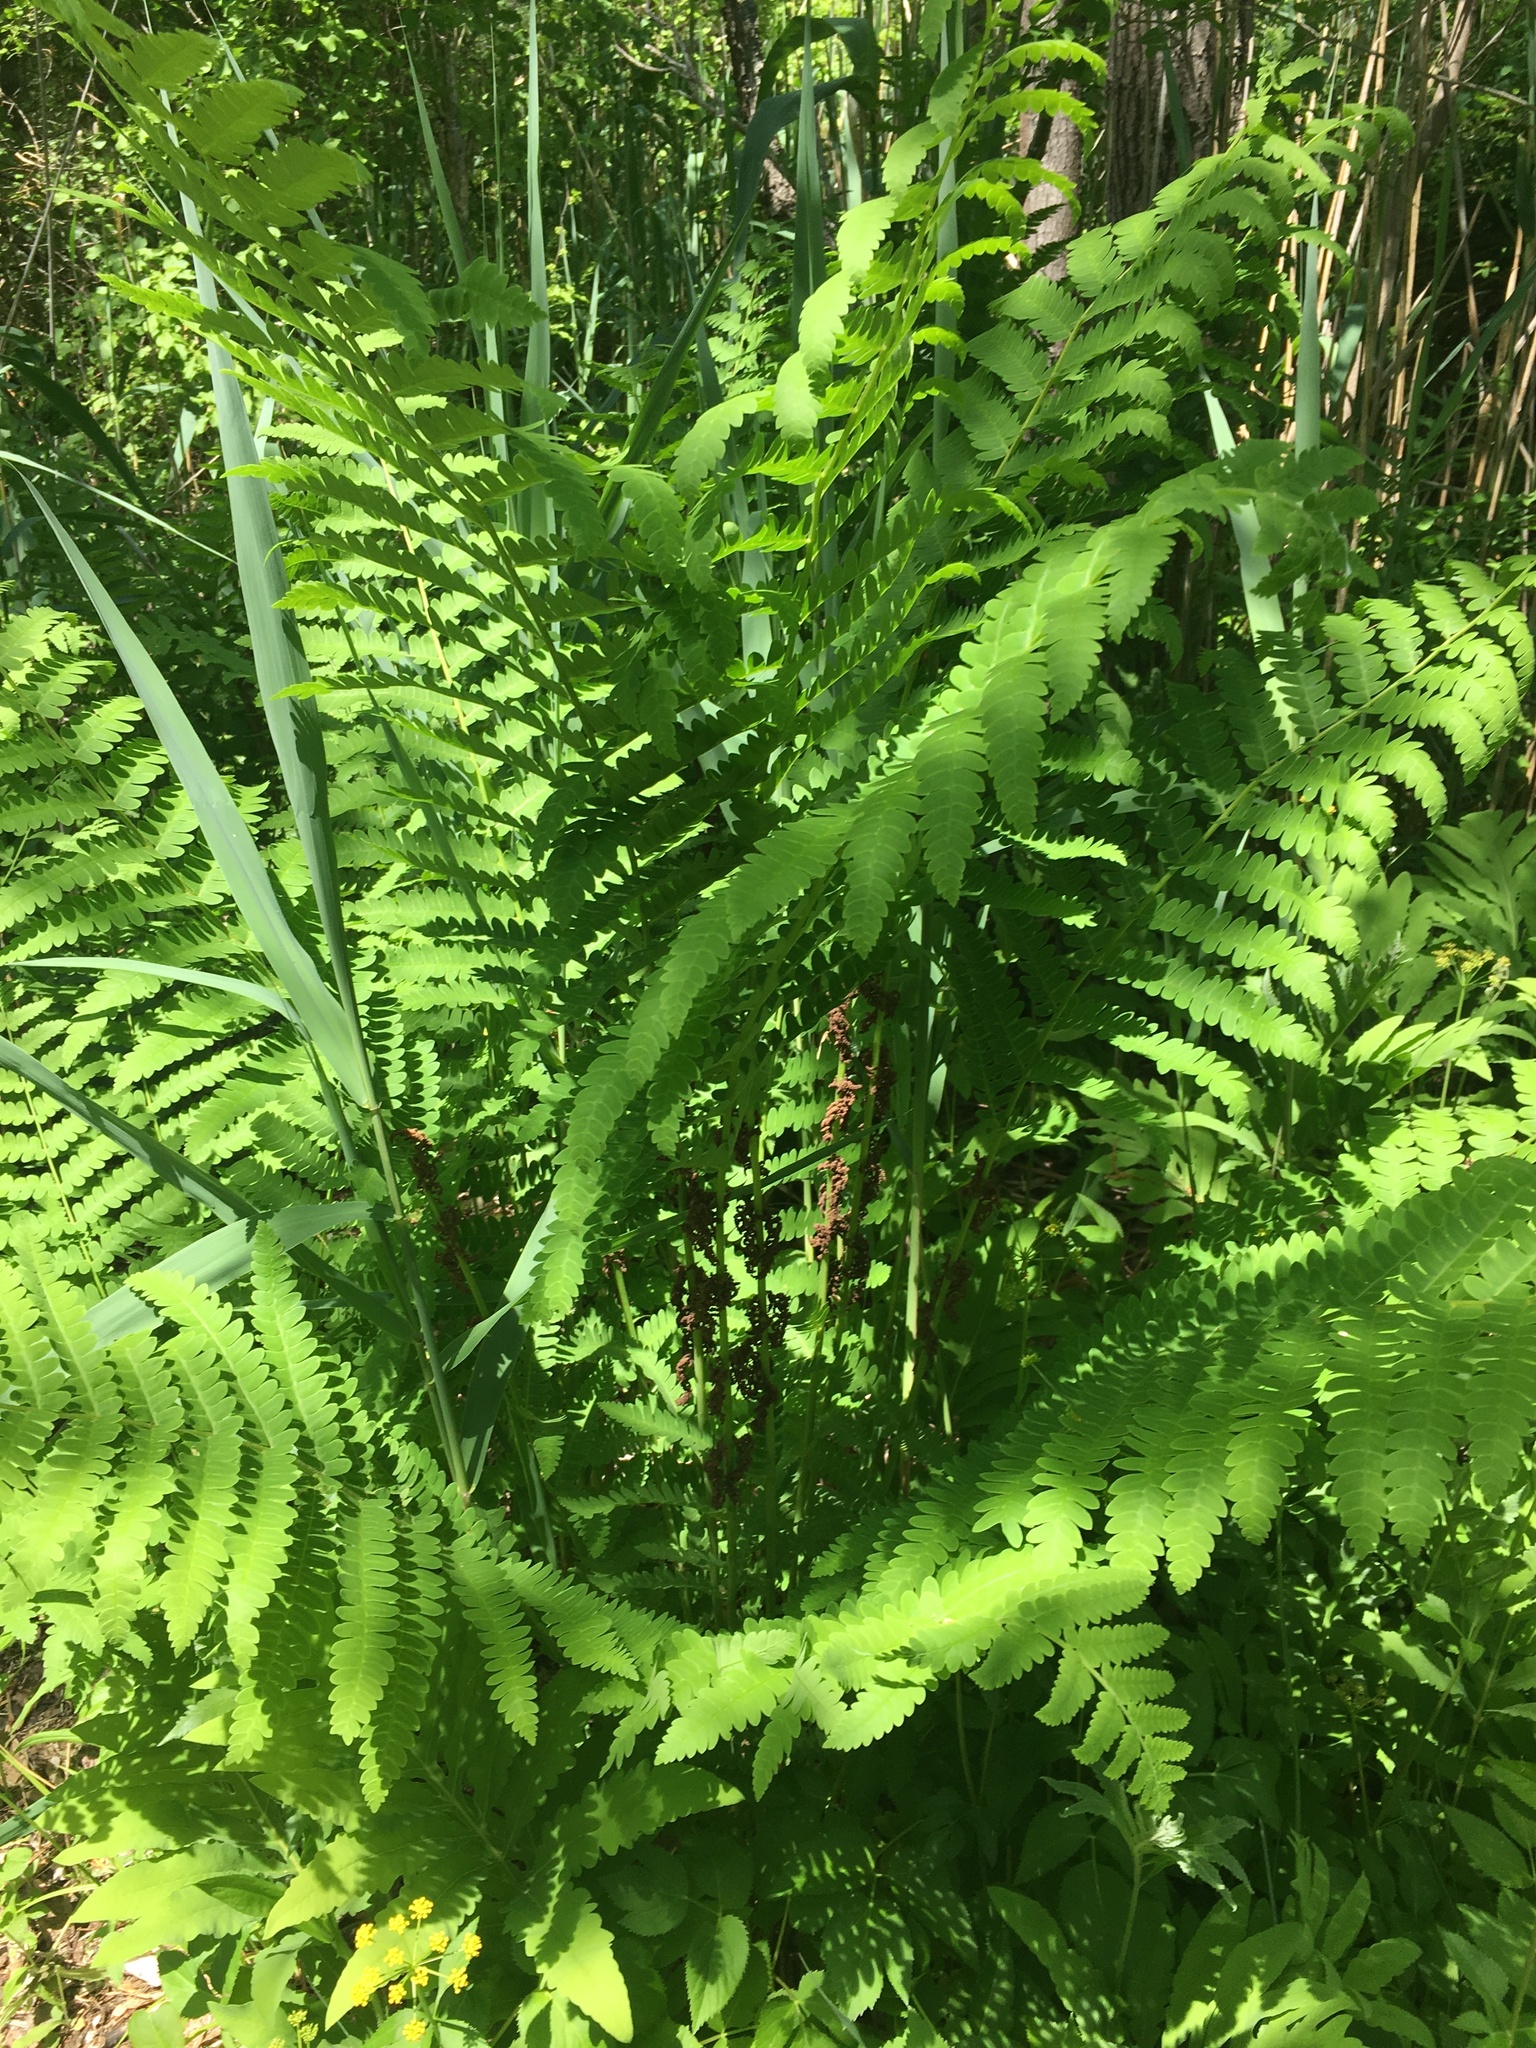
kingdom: Plantae
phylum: Tracheophyta
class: Polypodiopsida
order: Osmundales
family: Osmundaceae
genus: Claytosmunda
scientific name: Claytosmunda claytoniana
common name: Clayton's fern
